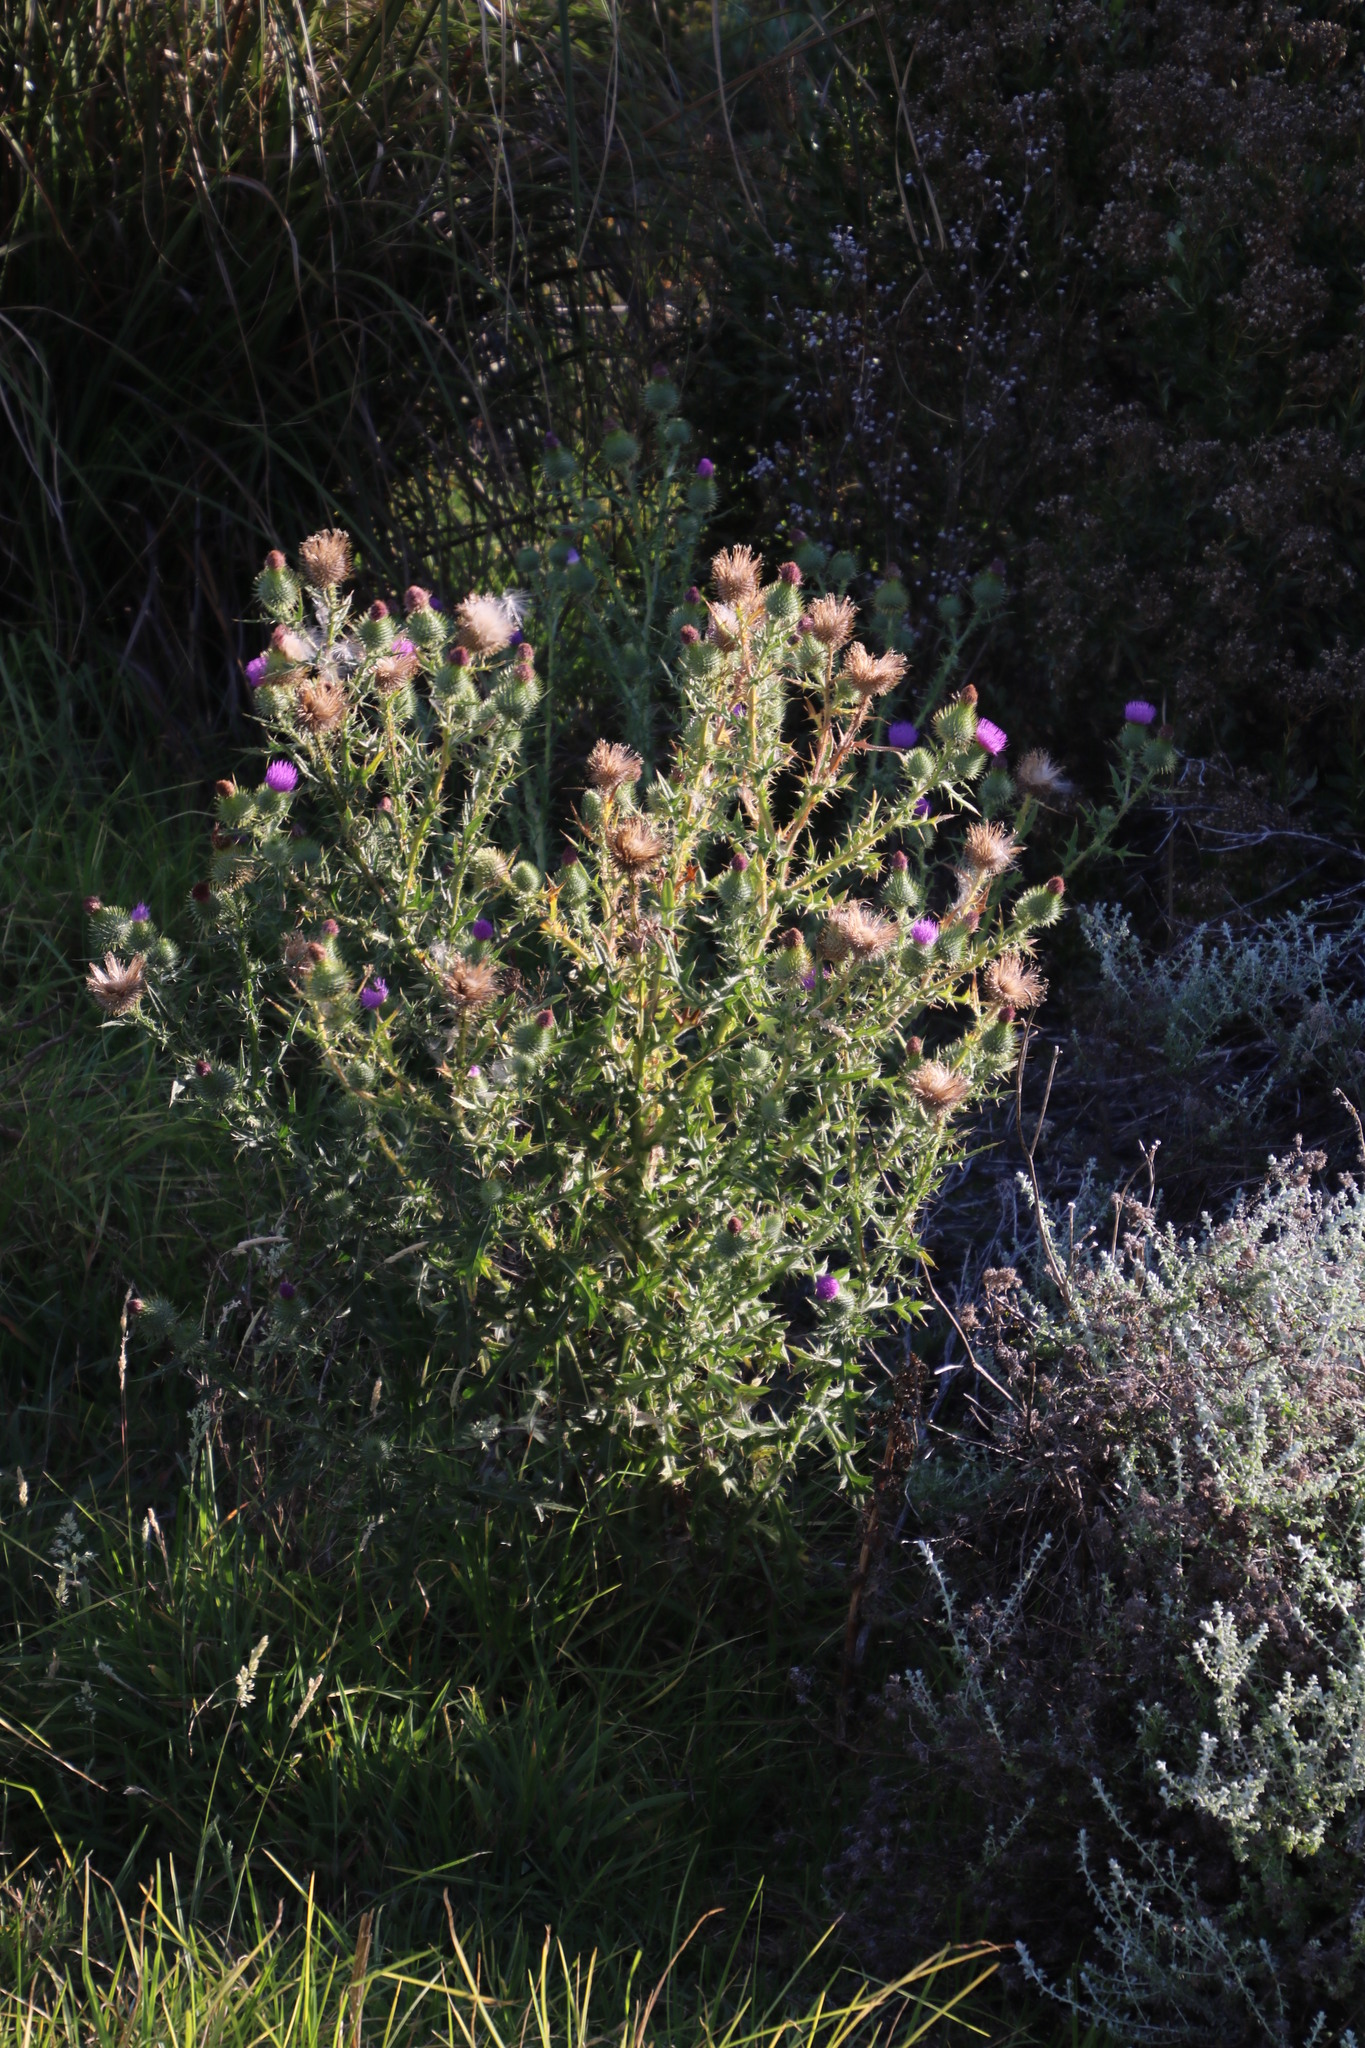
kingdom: Plantae
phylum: Tracheophyta
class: Magnoliopsida
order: Asterales
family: Asteraceae
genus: Cirsium
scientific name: Cirsium vulgare
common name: Bull thistle
